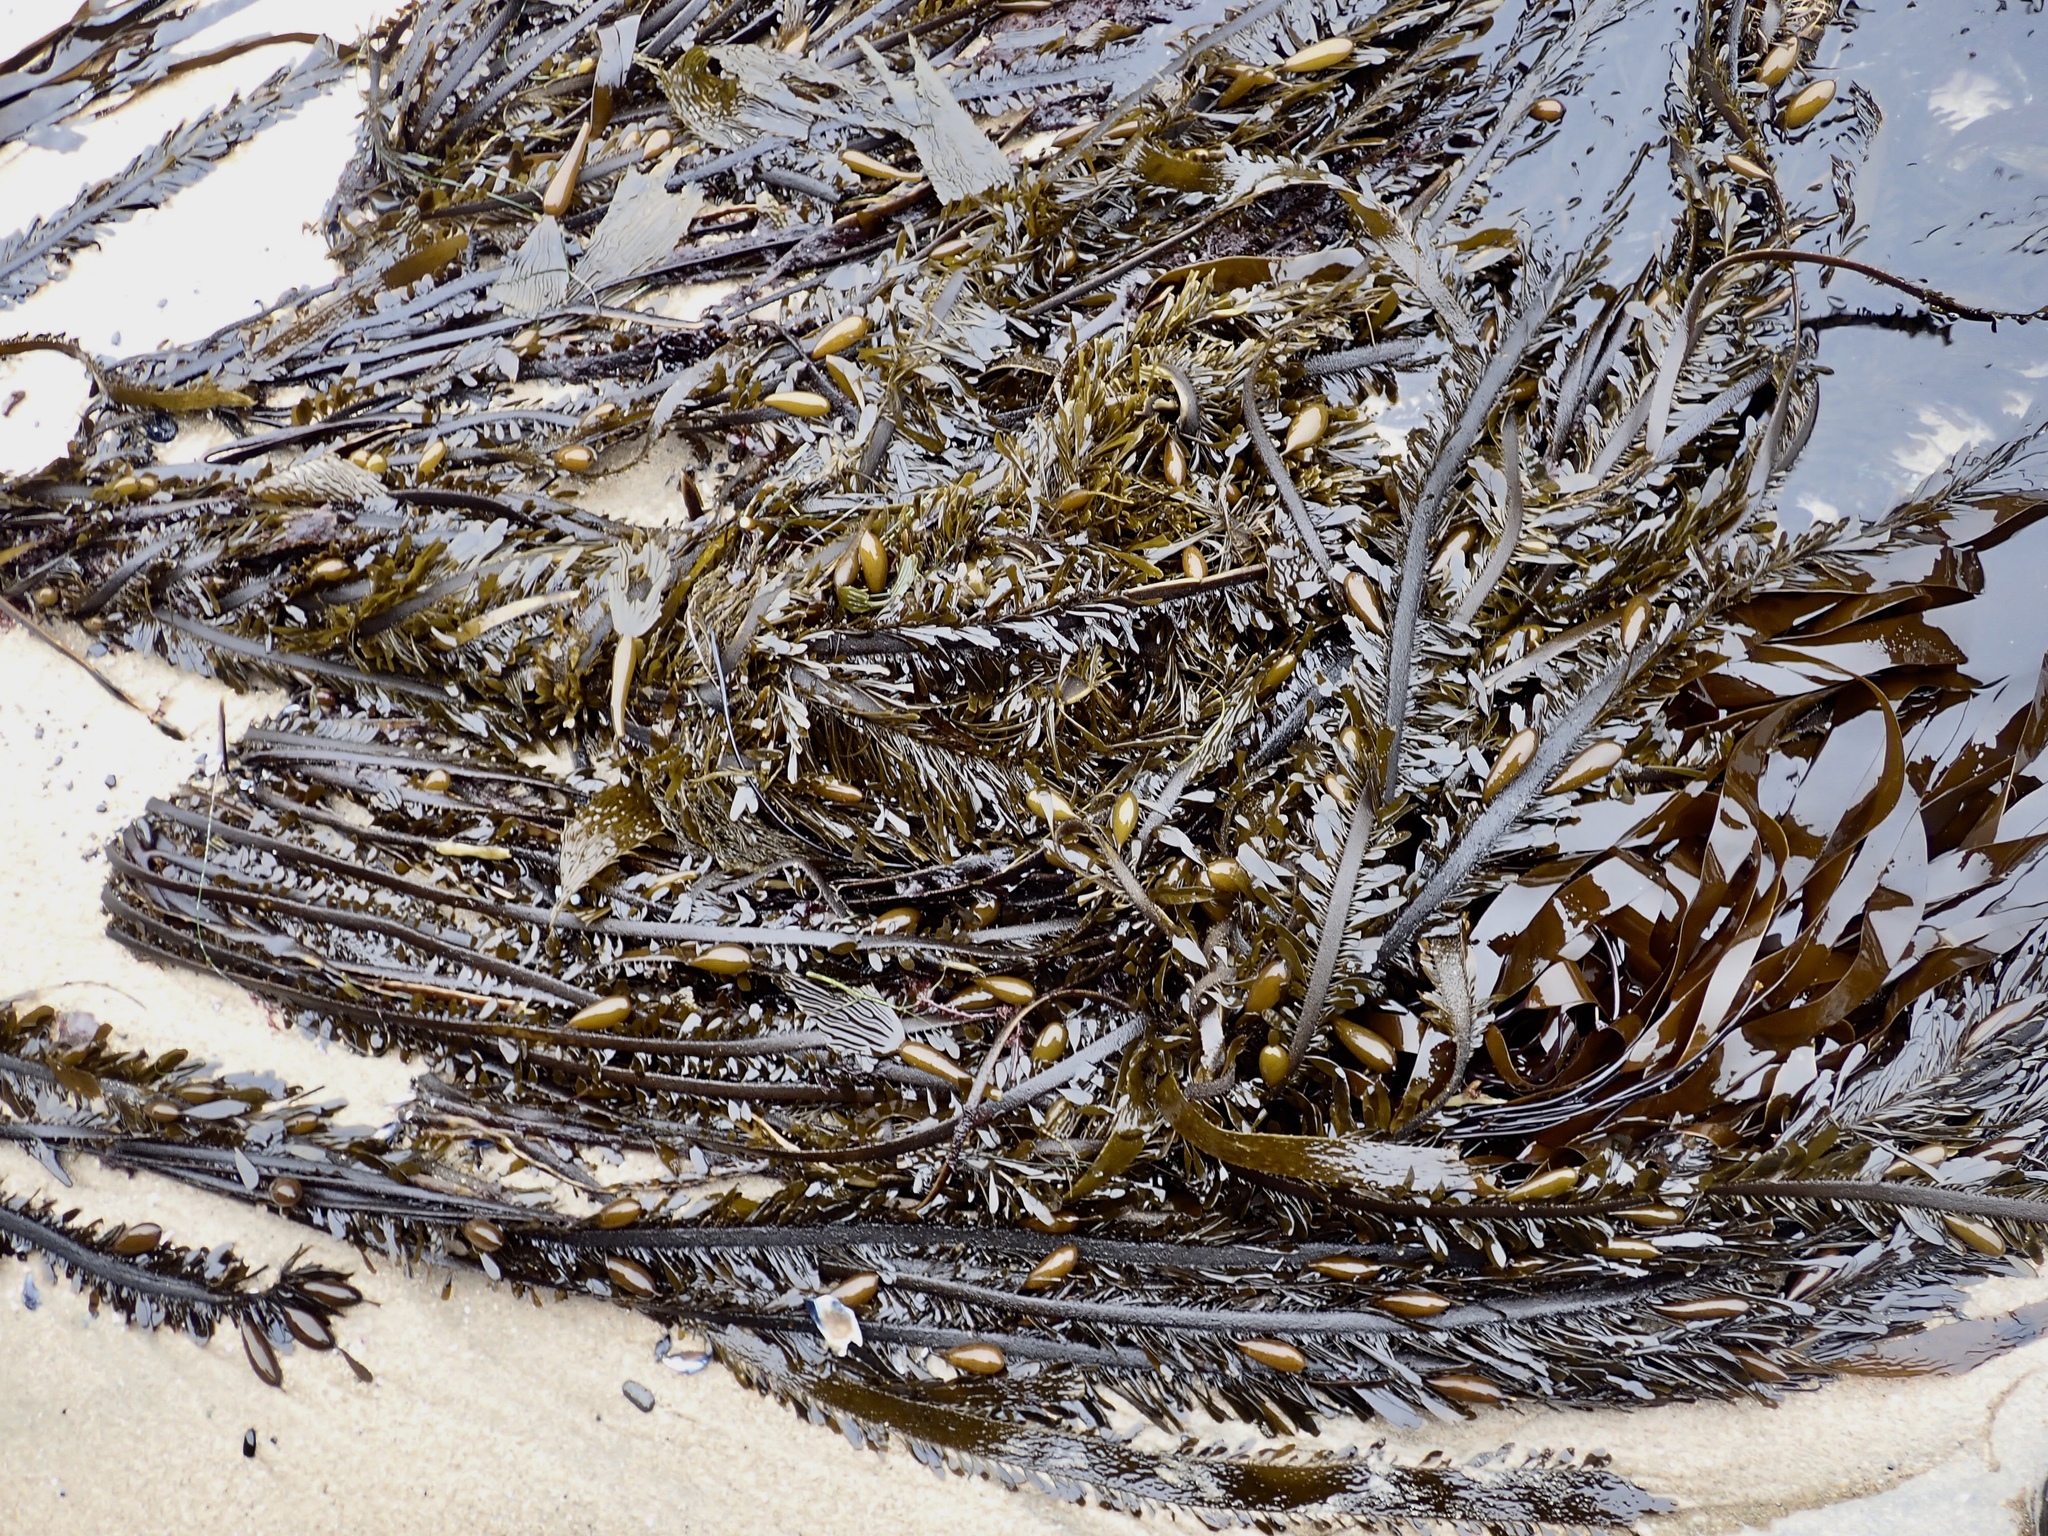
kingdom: Chromista
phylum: Ochrophyta
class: Phaeophyceae
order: Laminariales
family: Lessoniaceae
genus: Egregia
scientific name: Egregia menziesii
